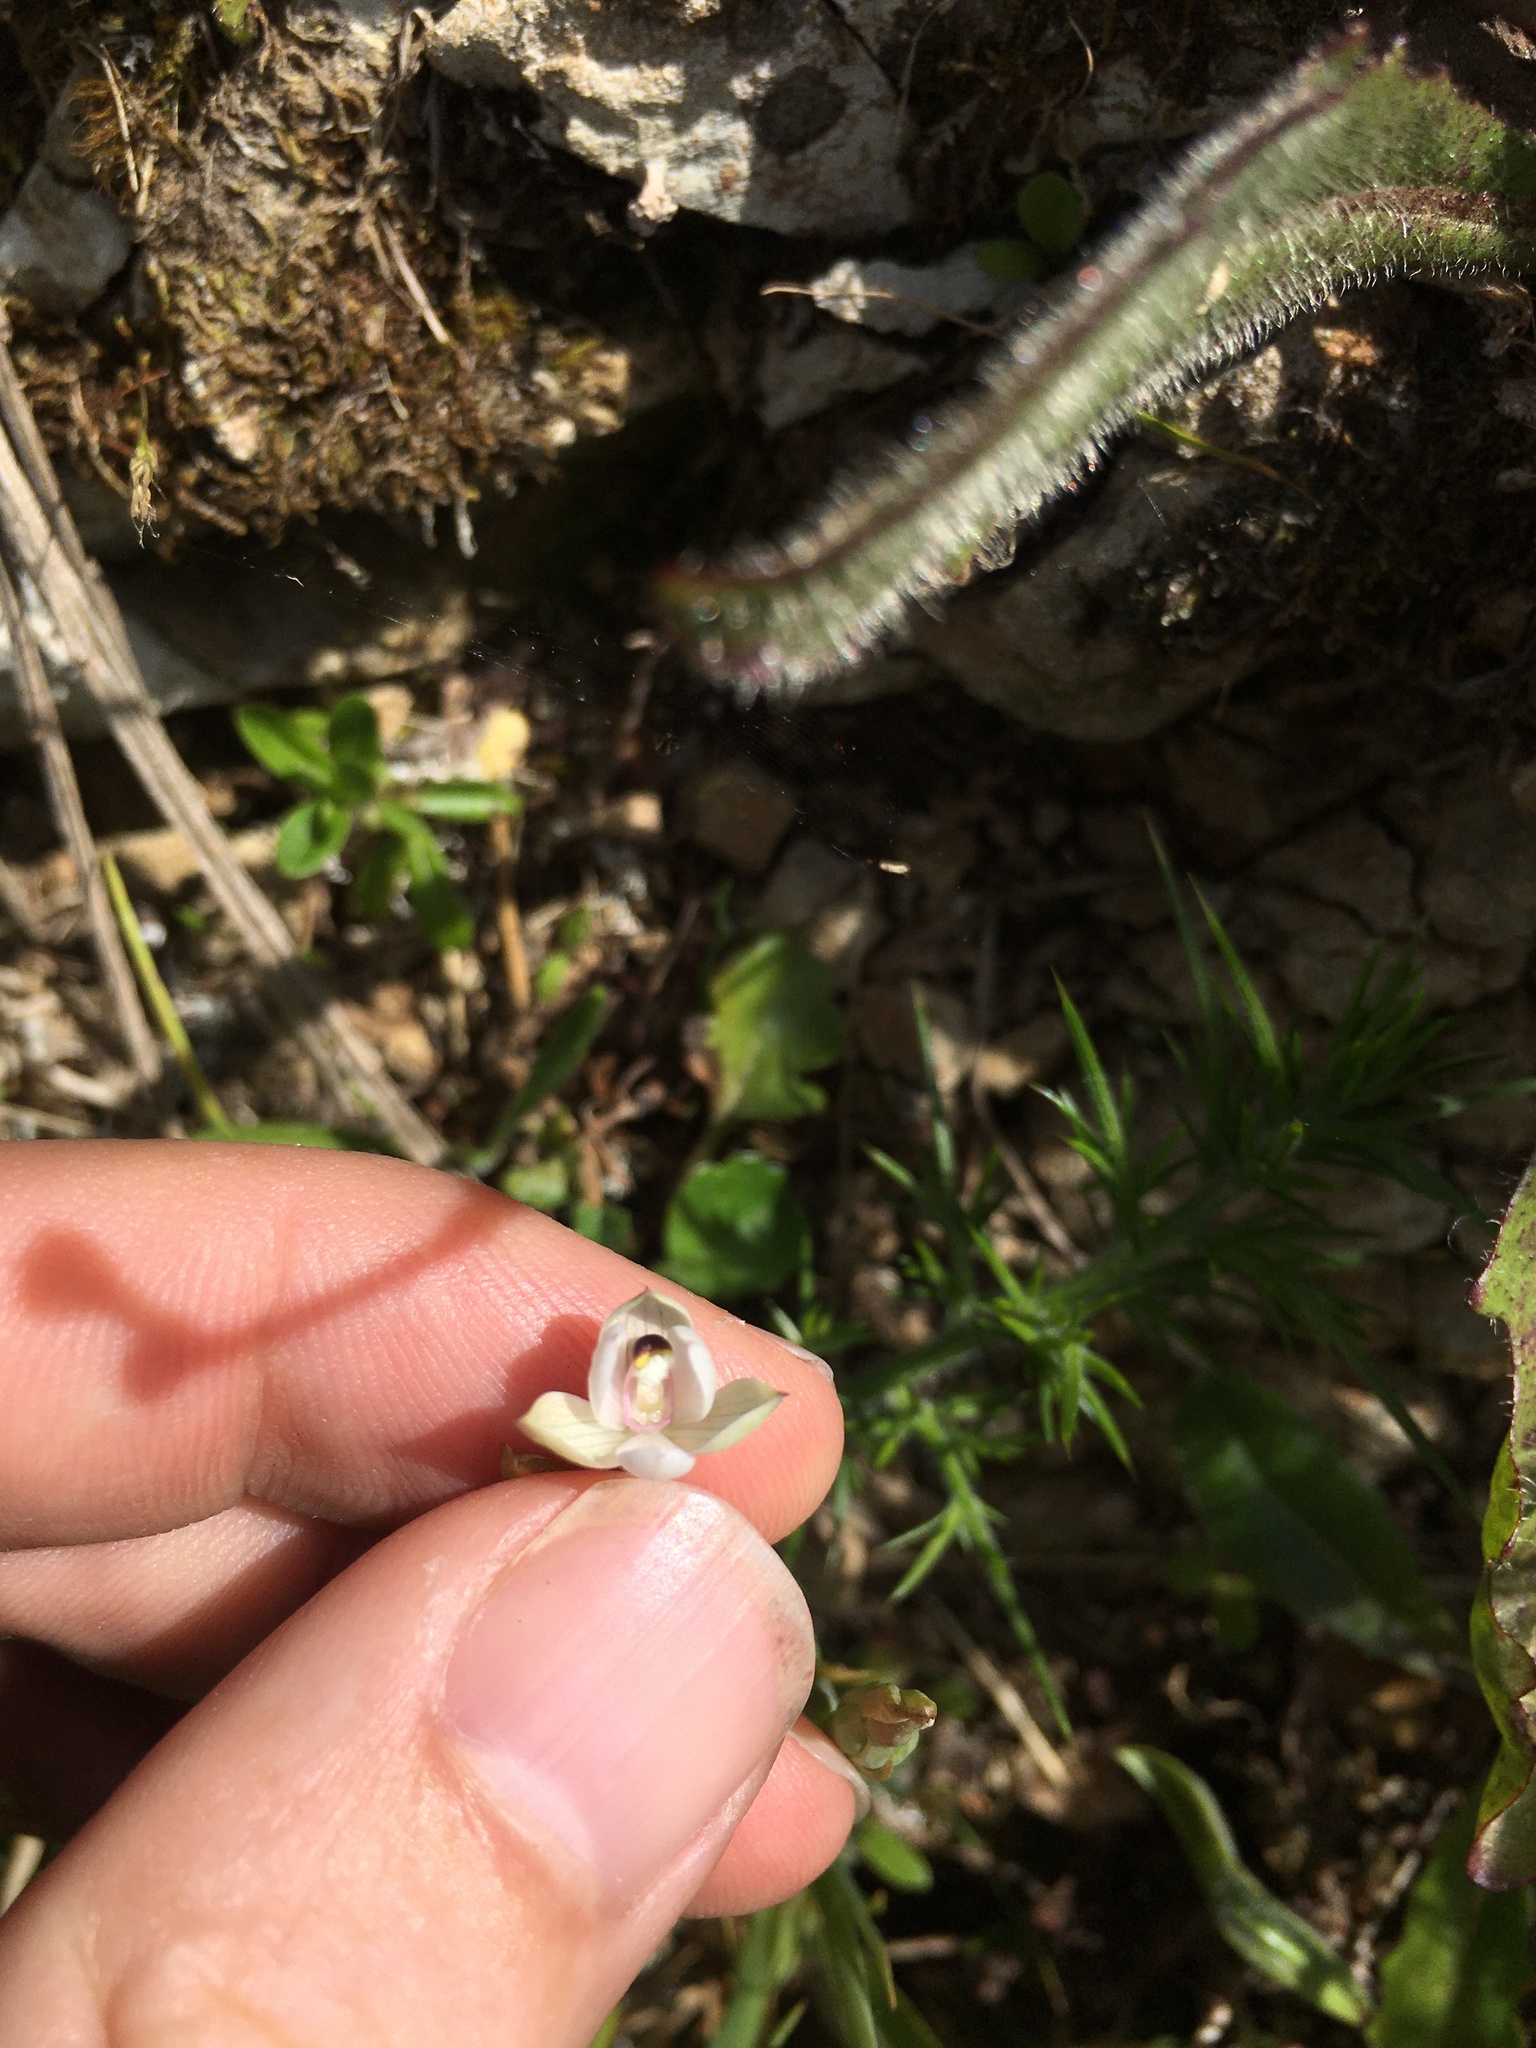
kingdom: Plantae
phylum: Tracheophyta
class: Liliopsida
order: Asparagales
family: Orchidaceae
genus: Thelymitra
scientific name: Thelymitra longifolia
